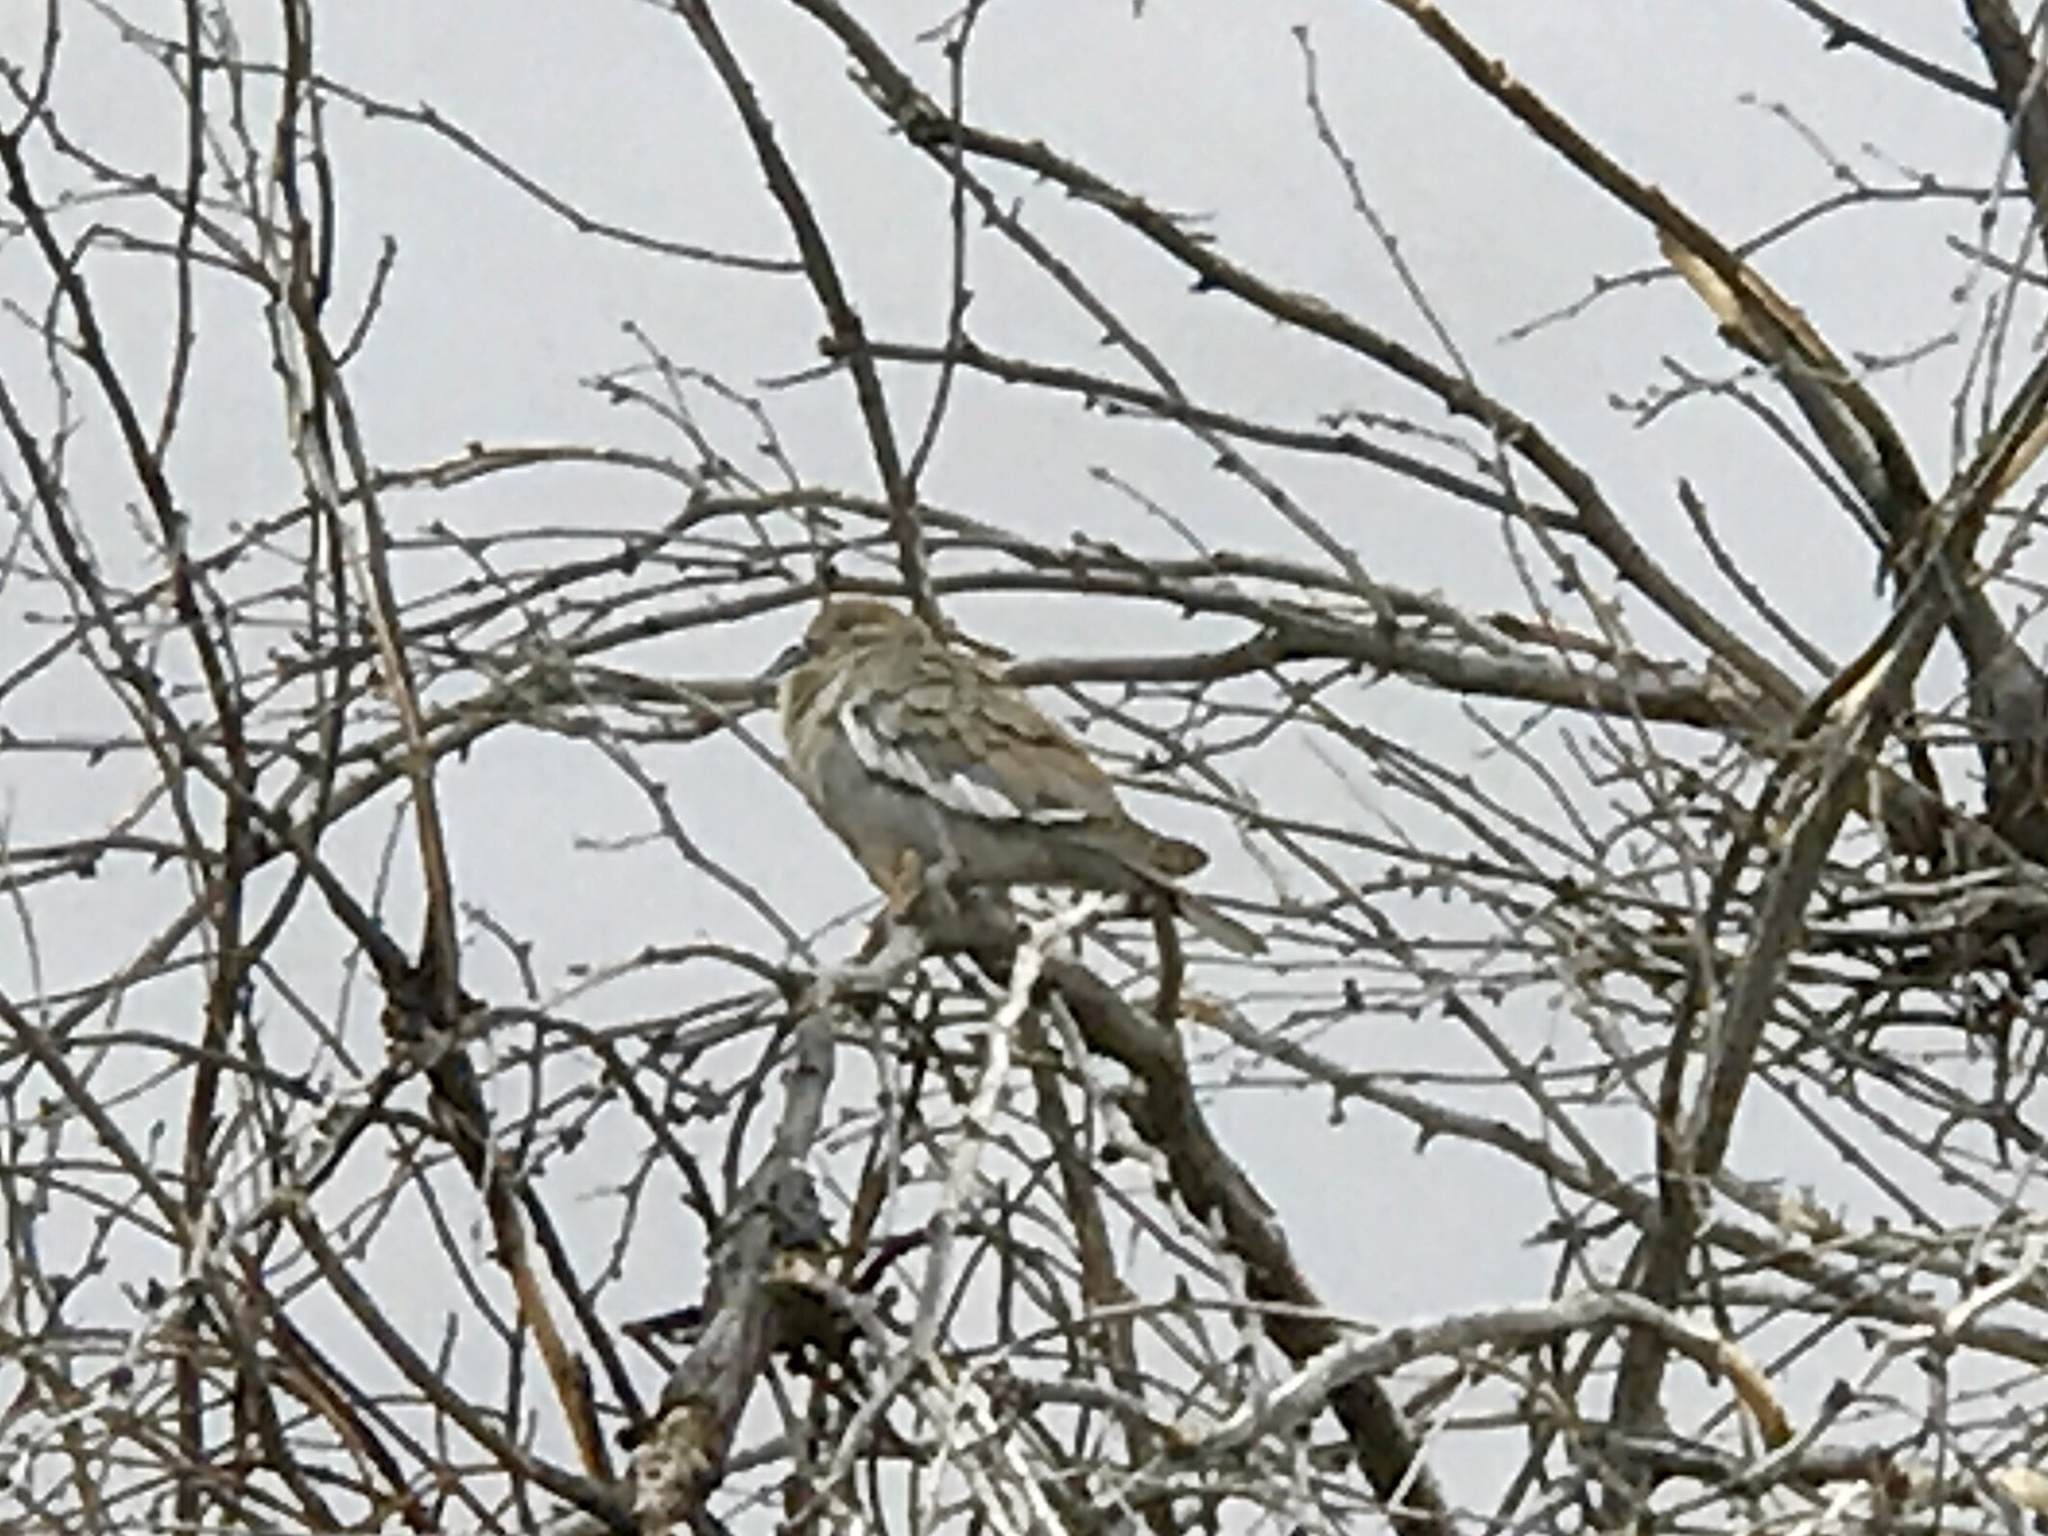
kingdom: Animalia
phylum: Chordata
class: Aves
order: Columbiformes
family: Columbidae
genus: Zenaida
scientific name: Zenaida asiatica
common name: White-winged dove
